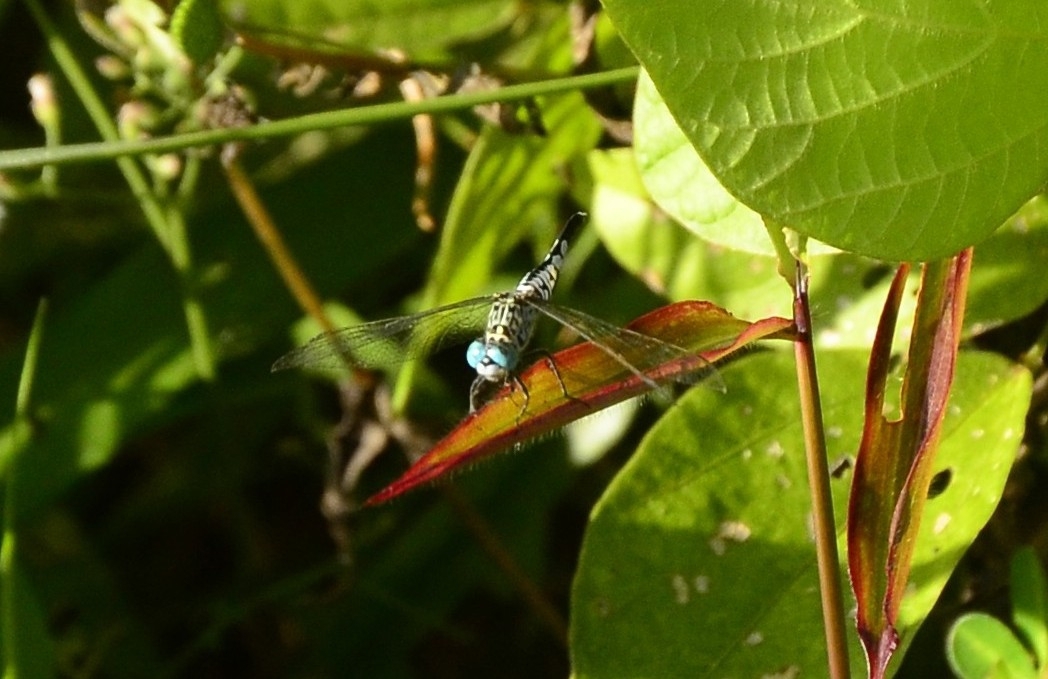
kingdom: Animalia
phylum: Arthropoda
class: Insecta
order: Odonata
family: Libellulidae
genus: Acisoma
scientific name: Acisoma panorpoides
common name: Asian pintail
